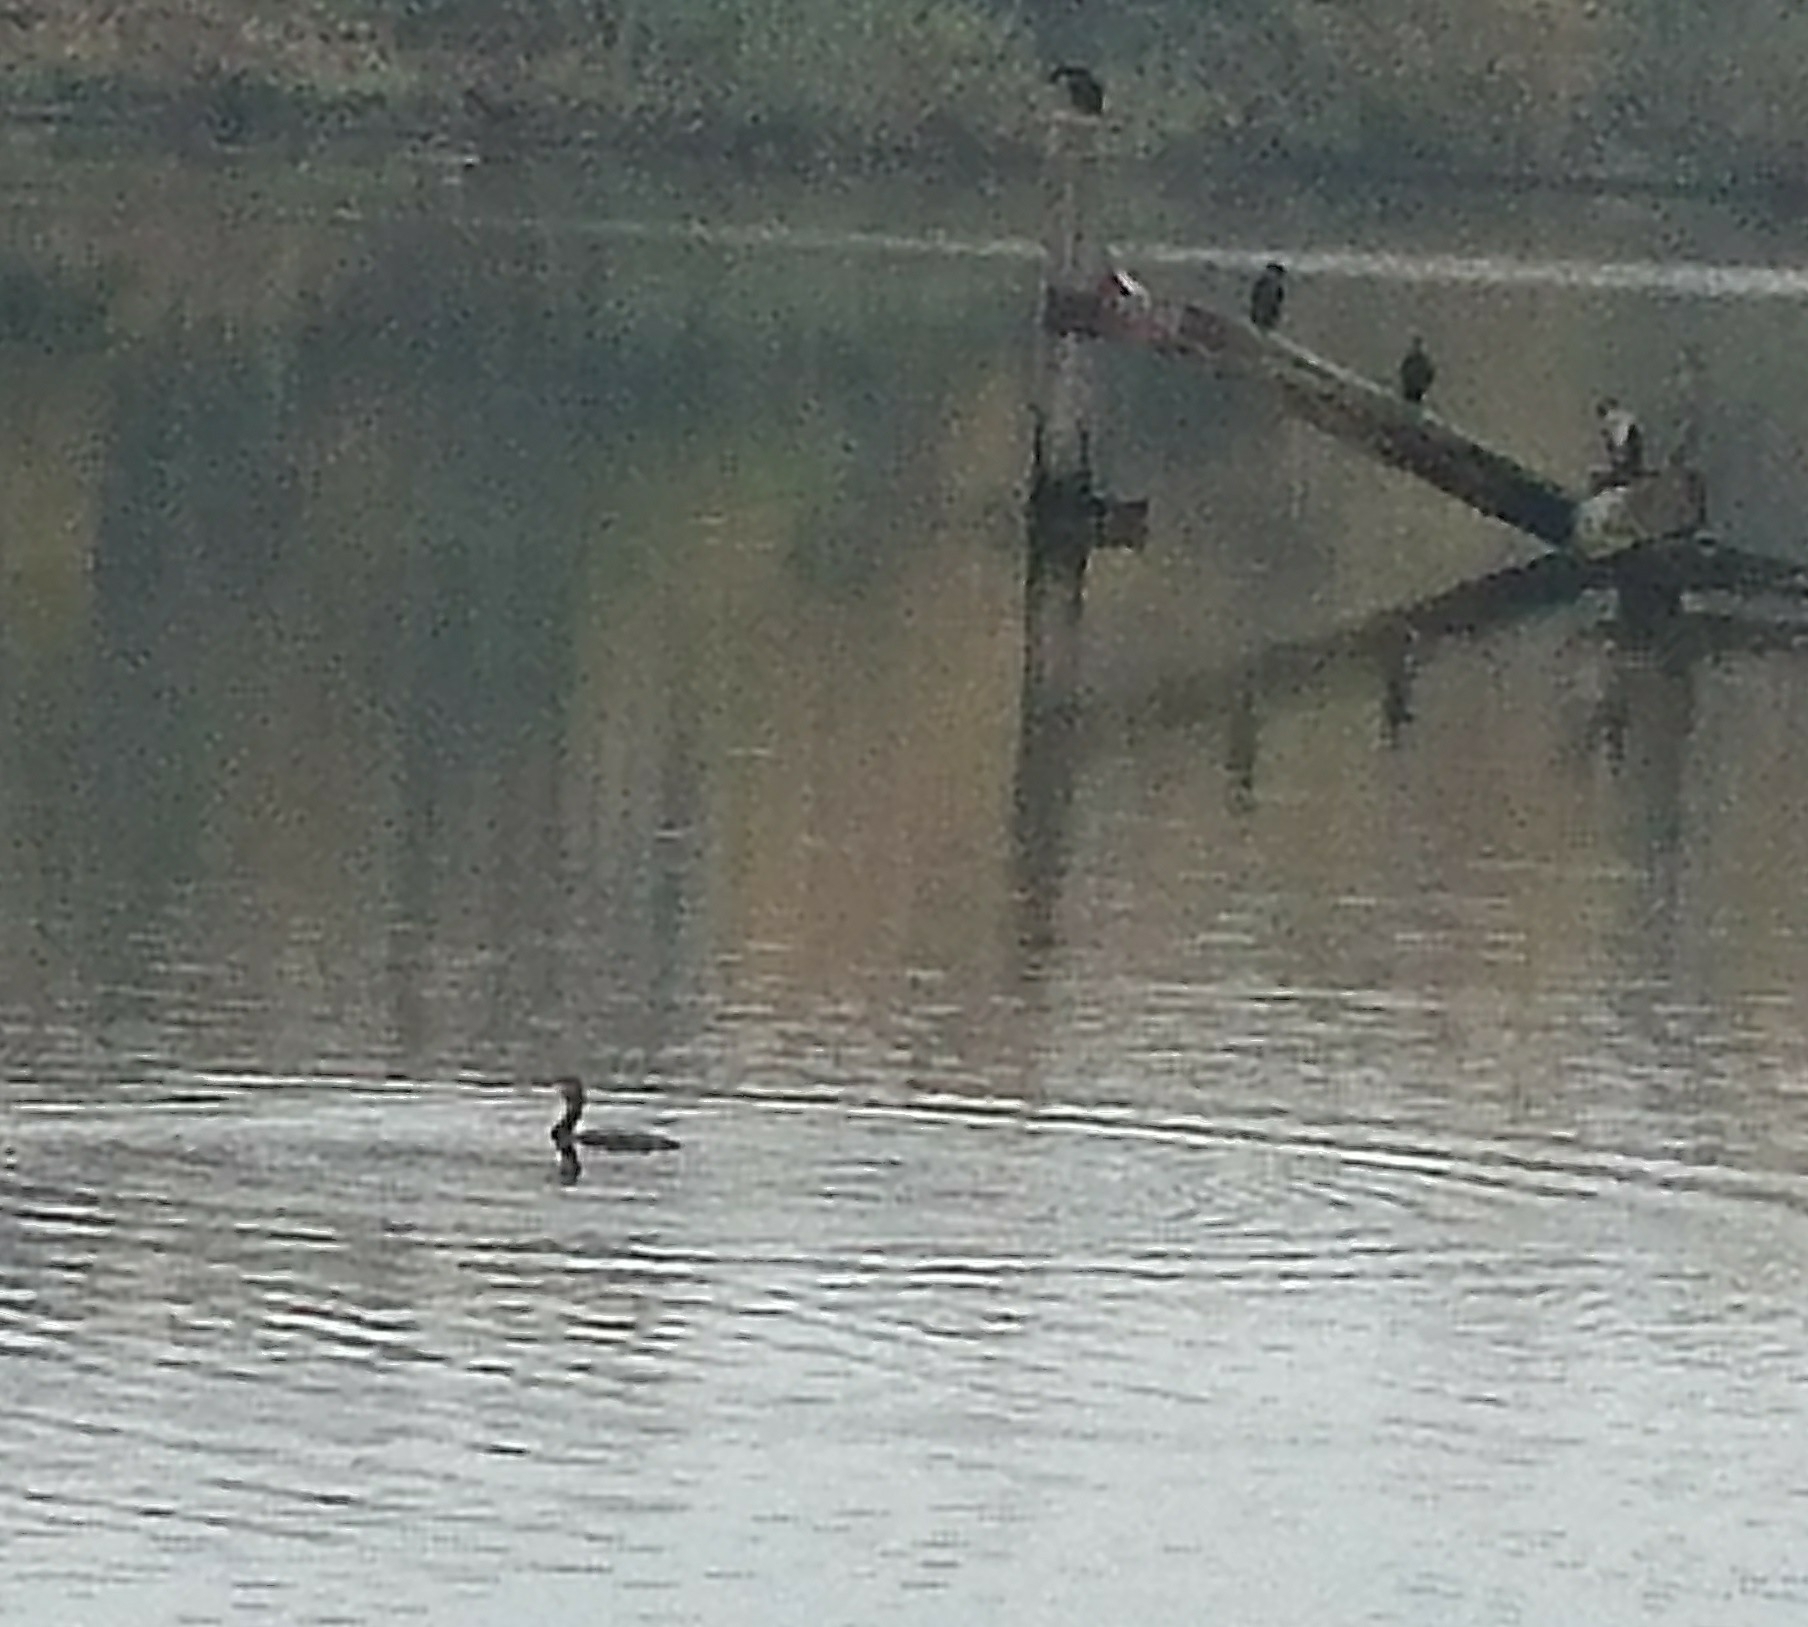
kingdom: Animalia
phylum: Chordata
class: Aves
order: Suliformes
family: Phalacrocoracidae
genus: Phalacrocorax
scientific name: Phalacrocorax carbo
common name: Great cormorant
